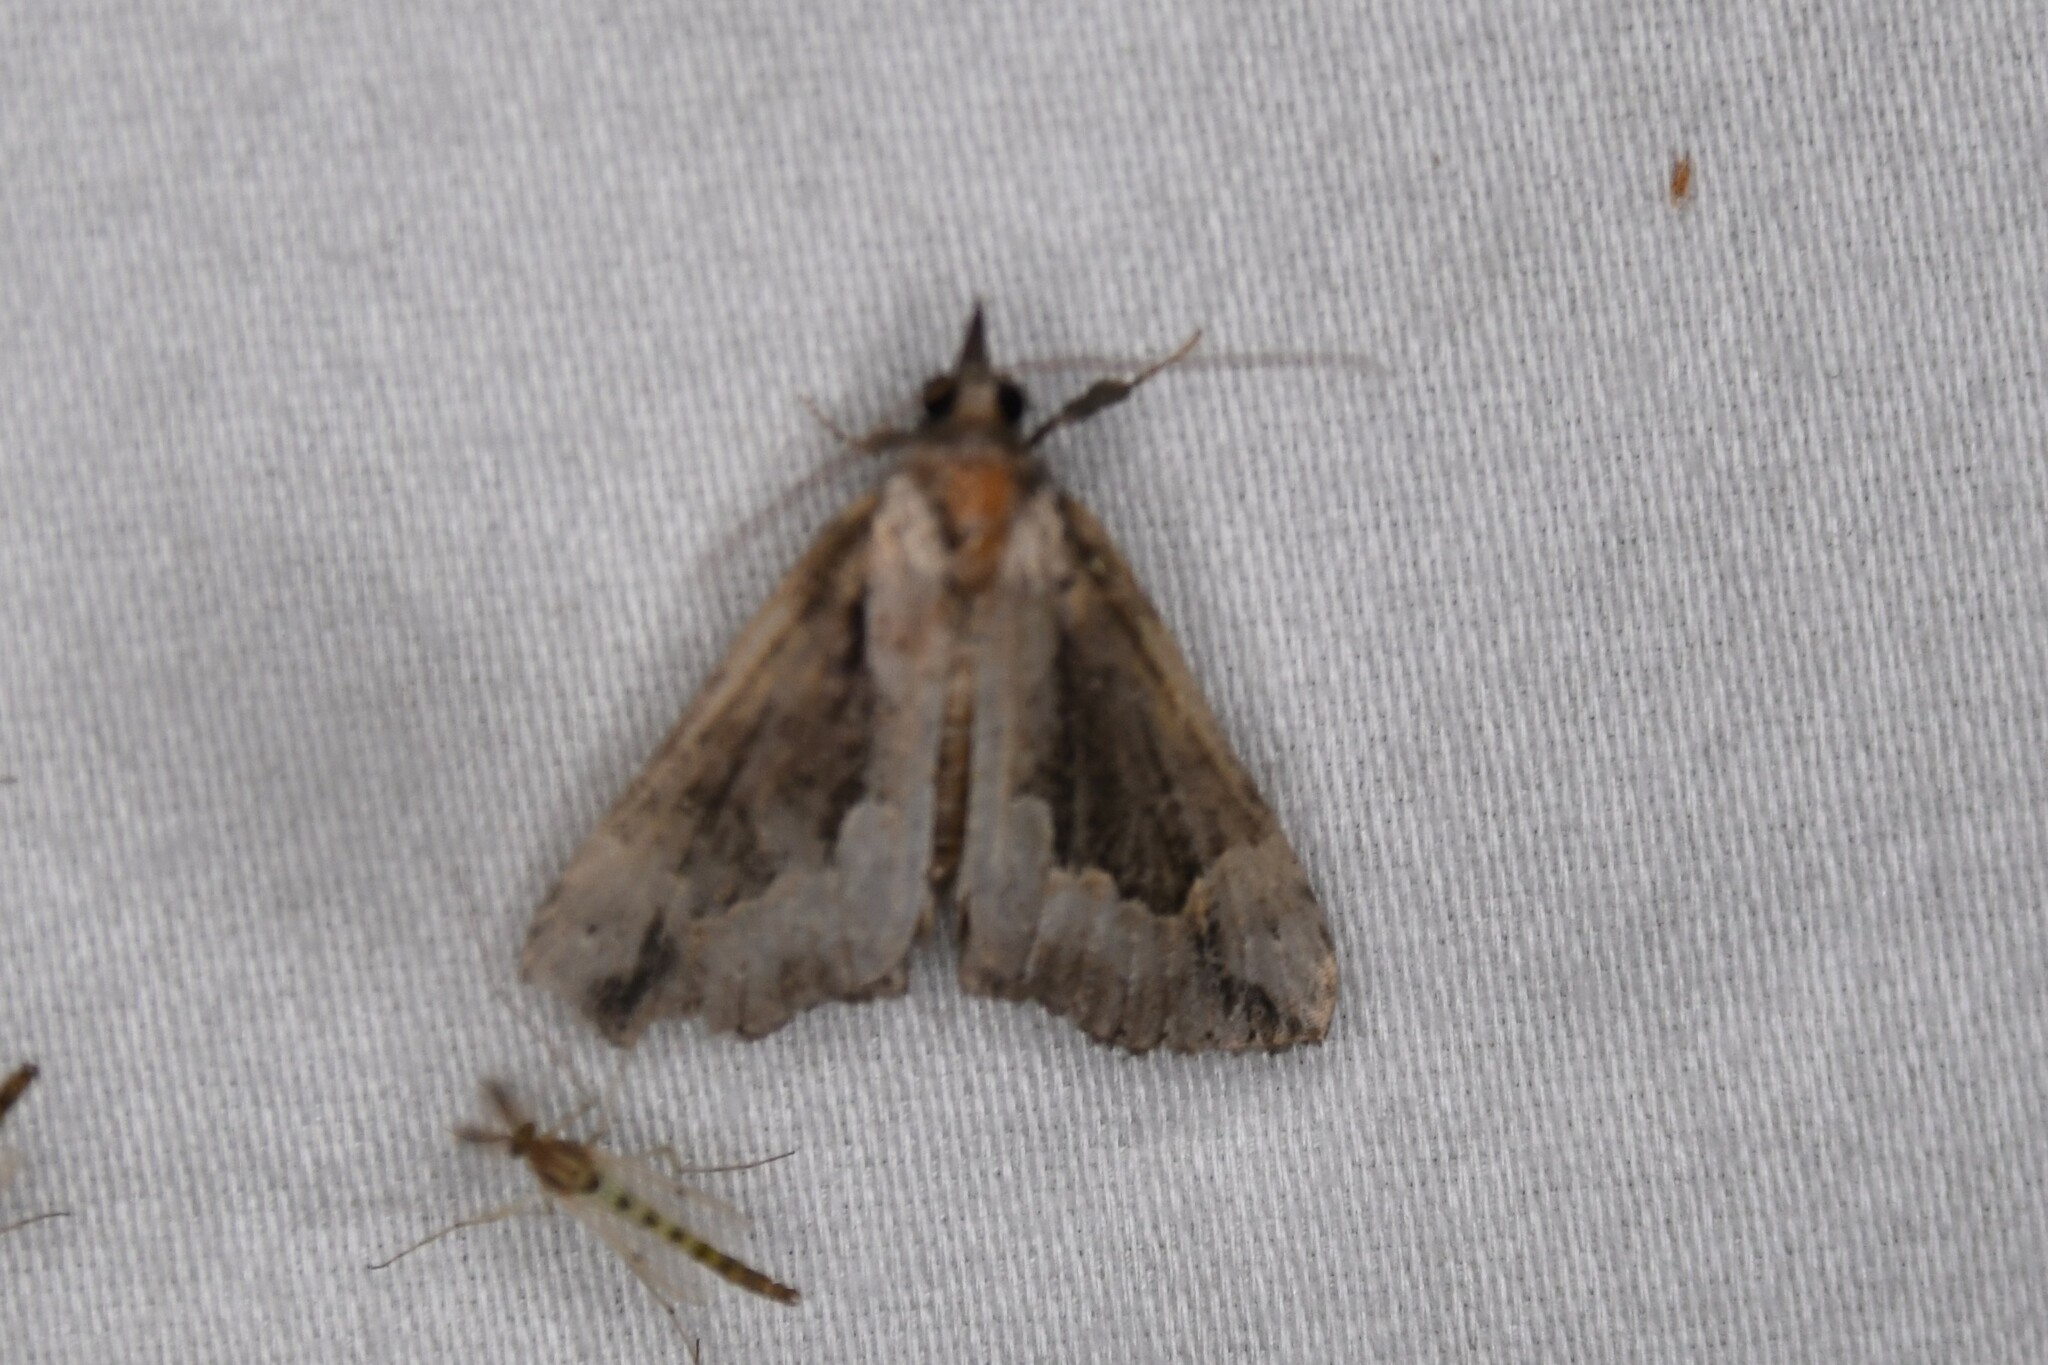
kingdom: Animalia
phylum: Arthropoda
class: Insecta
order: Lepidoptera
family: Erebidae
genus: Hypena
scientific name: Hypena baltimoralis
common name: Baltimore snout
